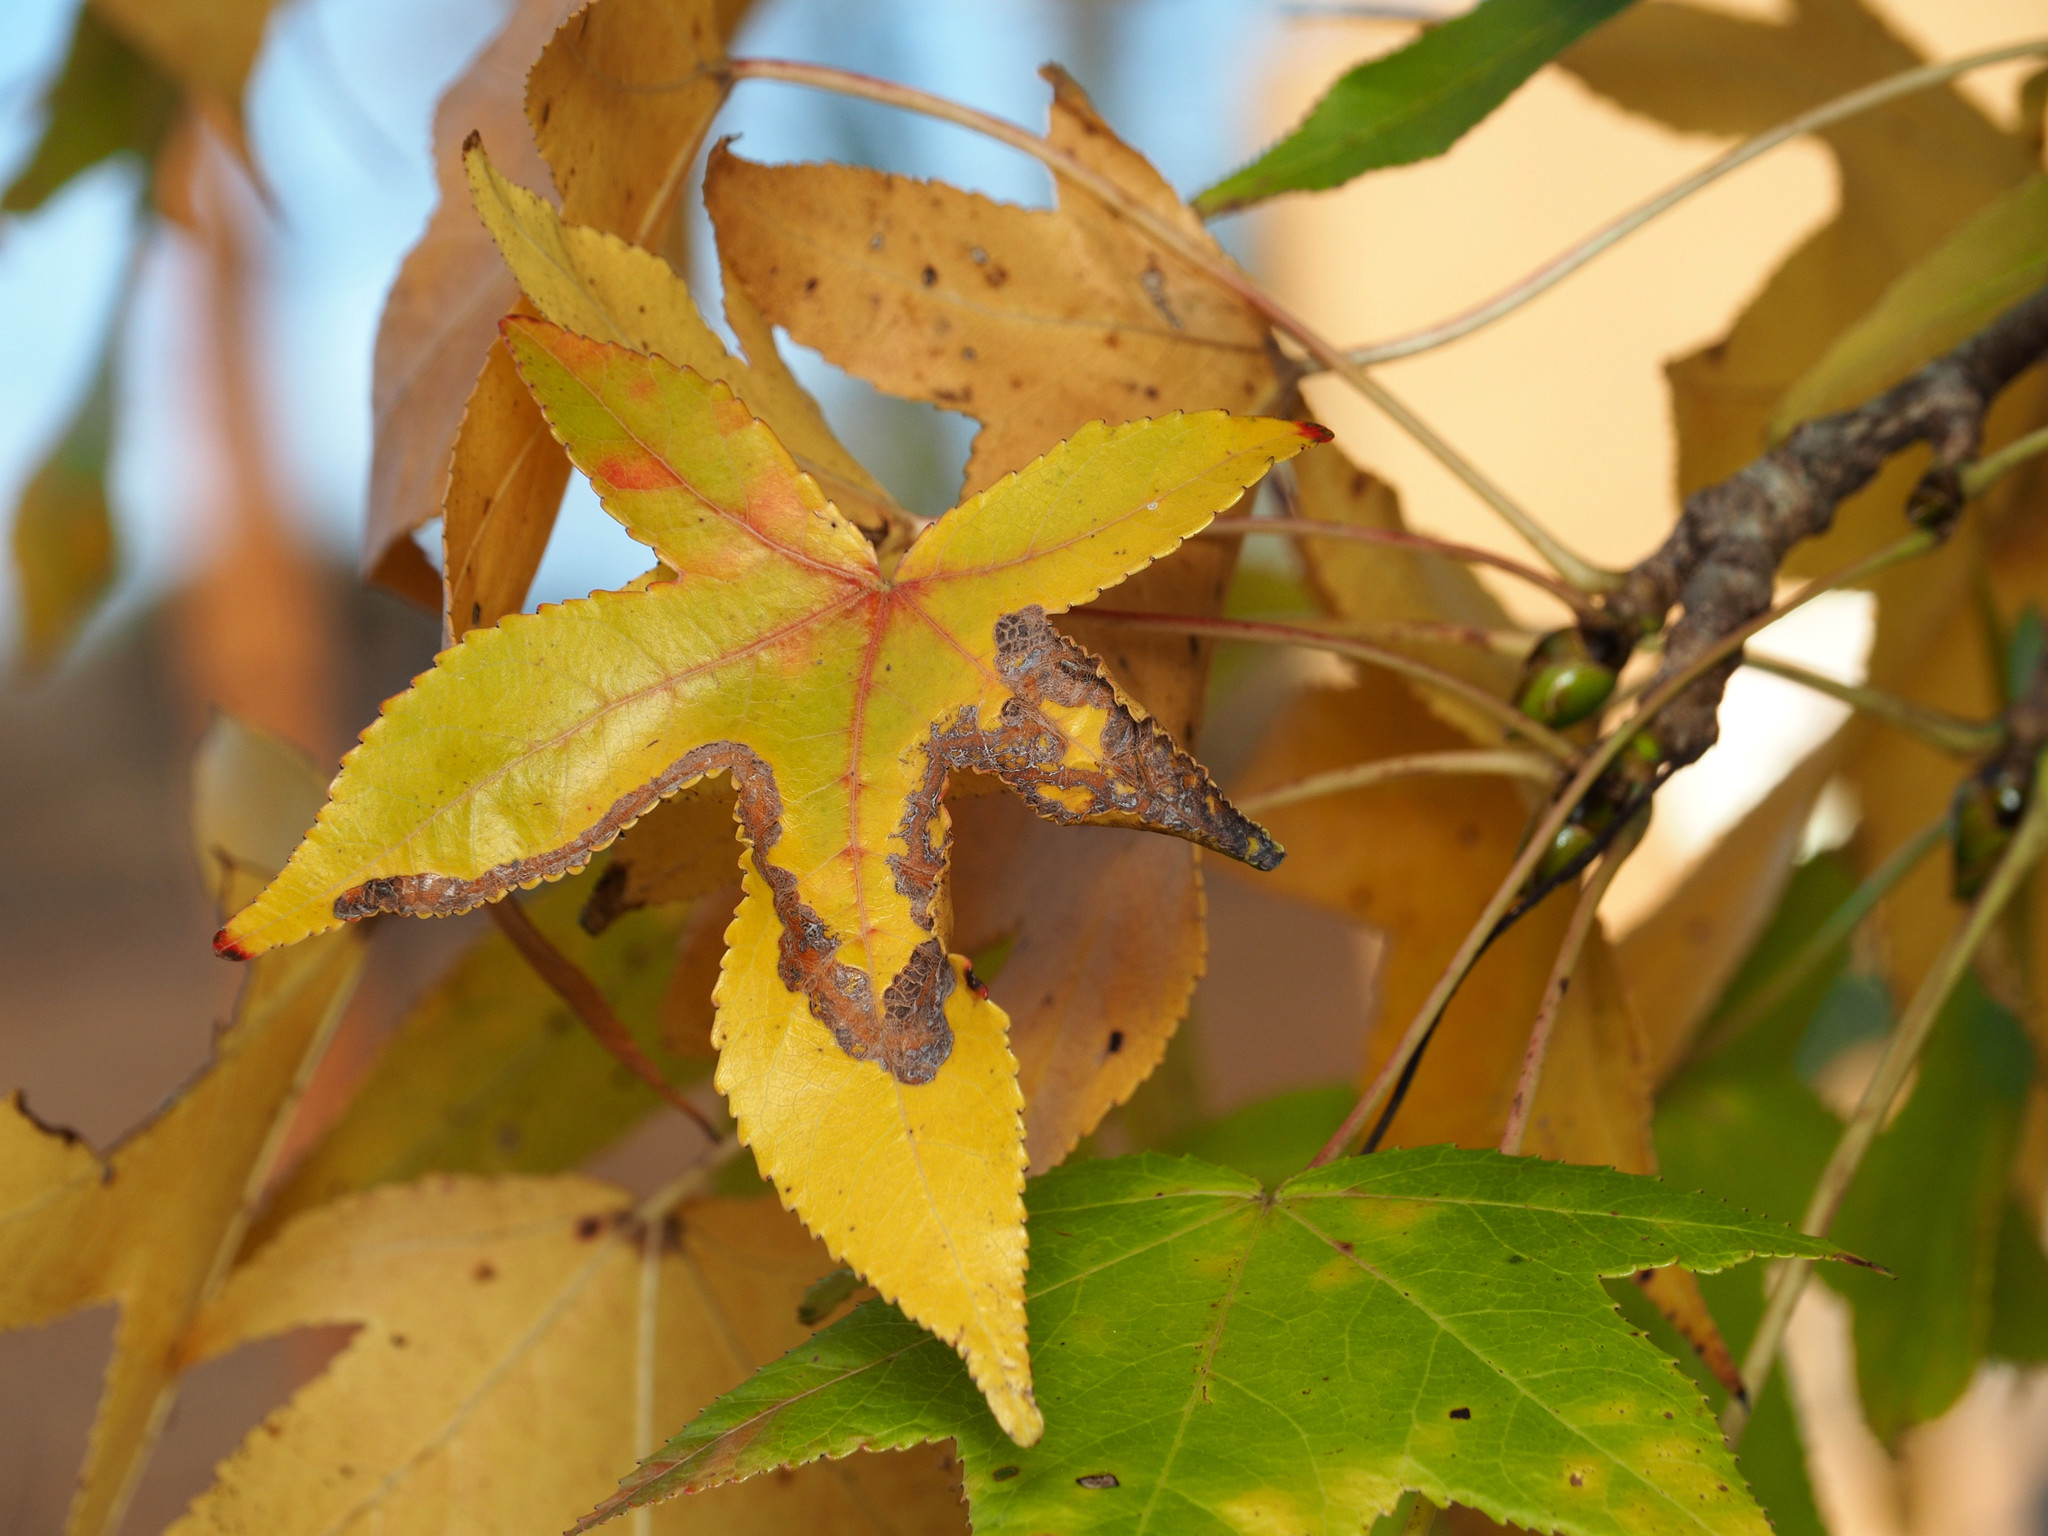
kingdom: Animalia
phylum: Arthropoda
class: Insecta
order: Lepidoptera
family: Gracillariidae
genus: Phyllocnistis
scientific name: Phyllocnistis liquidambarisella
